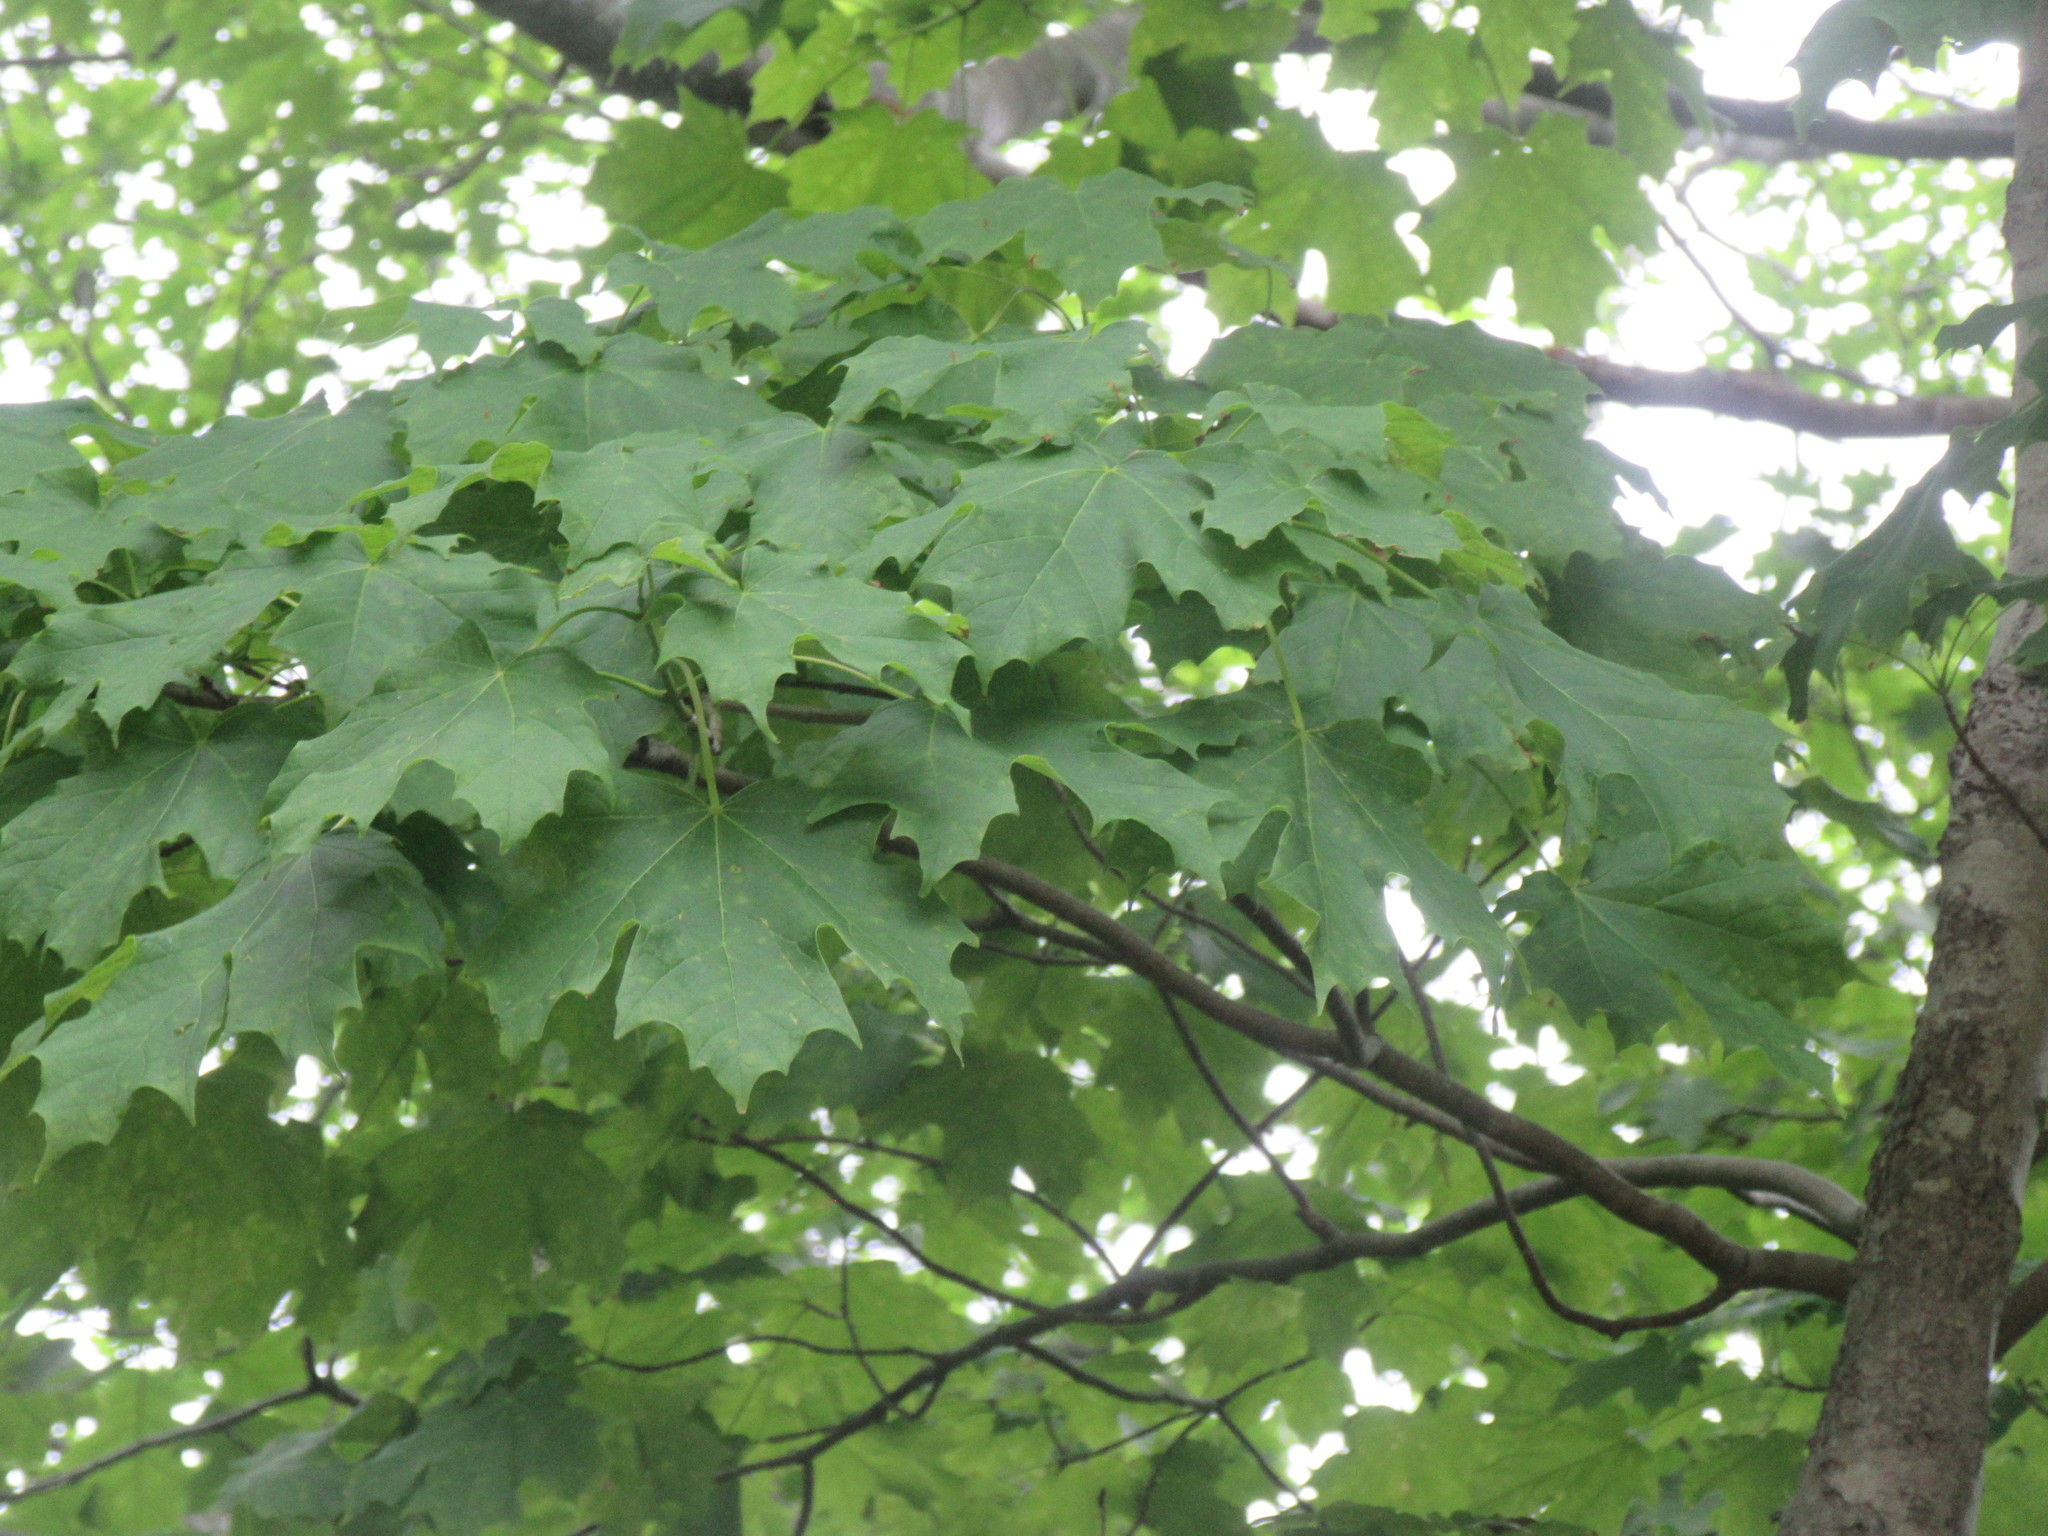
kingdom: Plantae
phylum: Tracheophyta
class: Magnoliopsida
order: Sapindales
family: Sapindaceae
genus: Acer
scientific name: Acer saccharum
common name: Sugar maple
